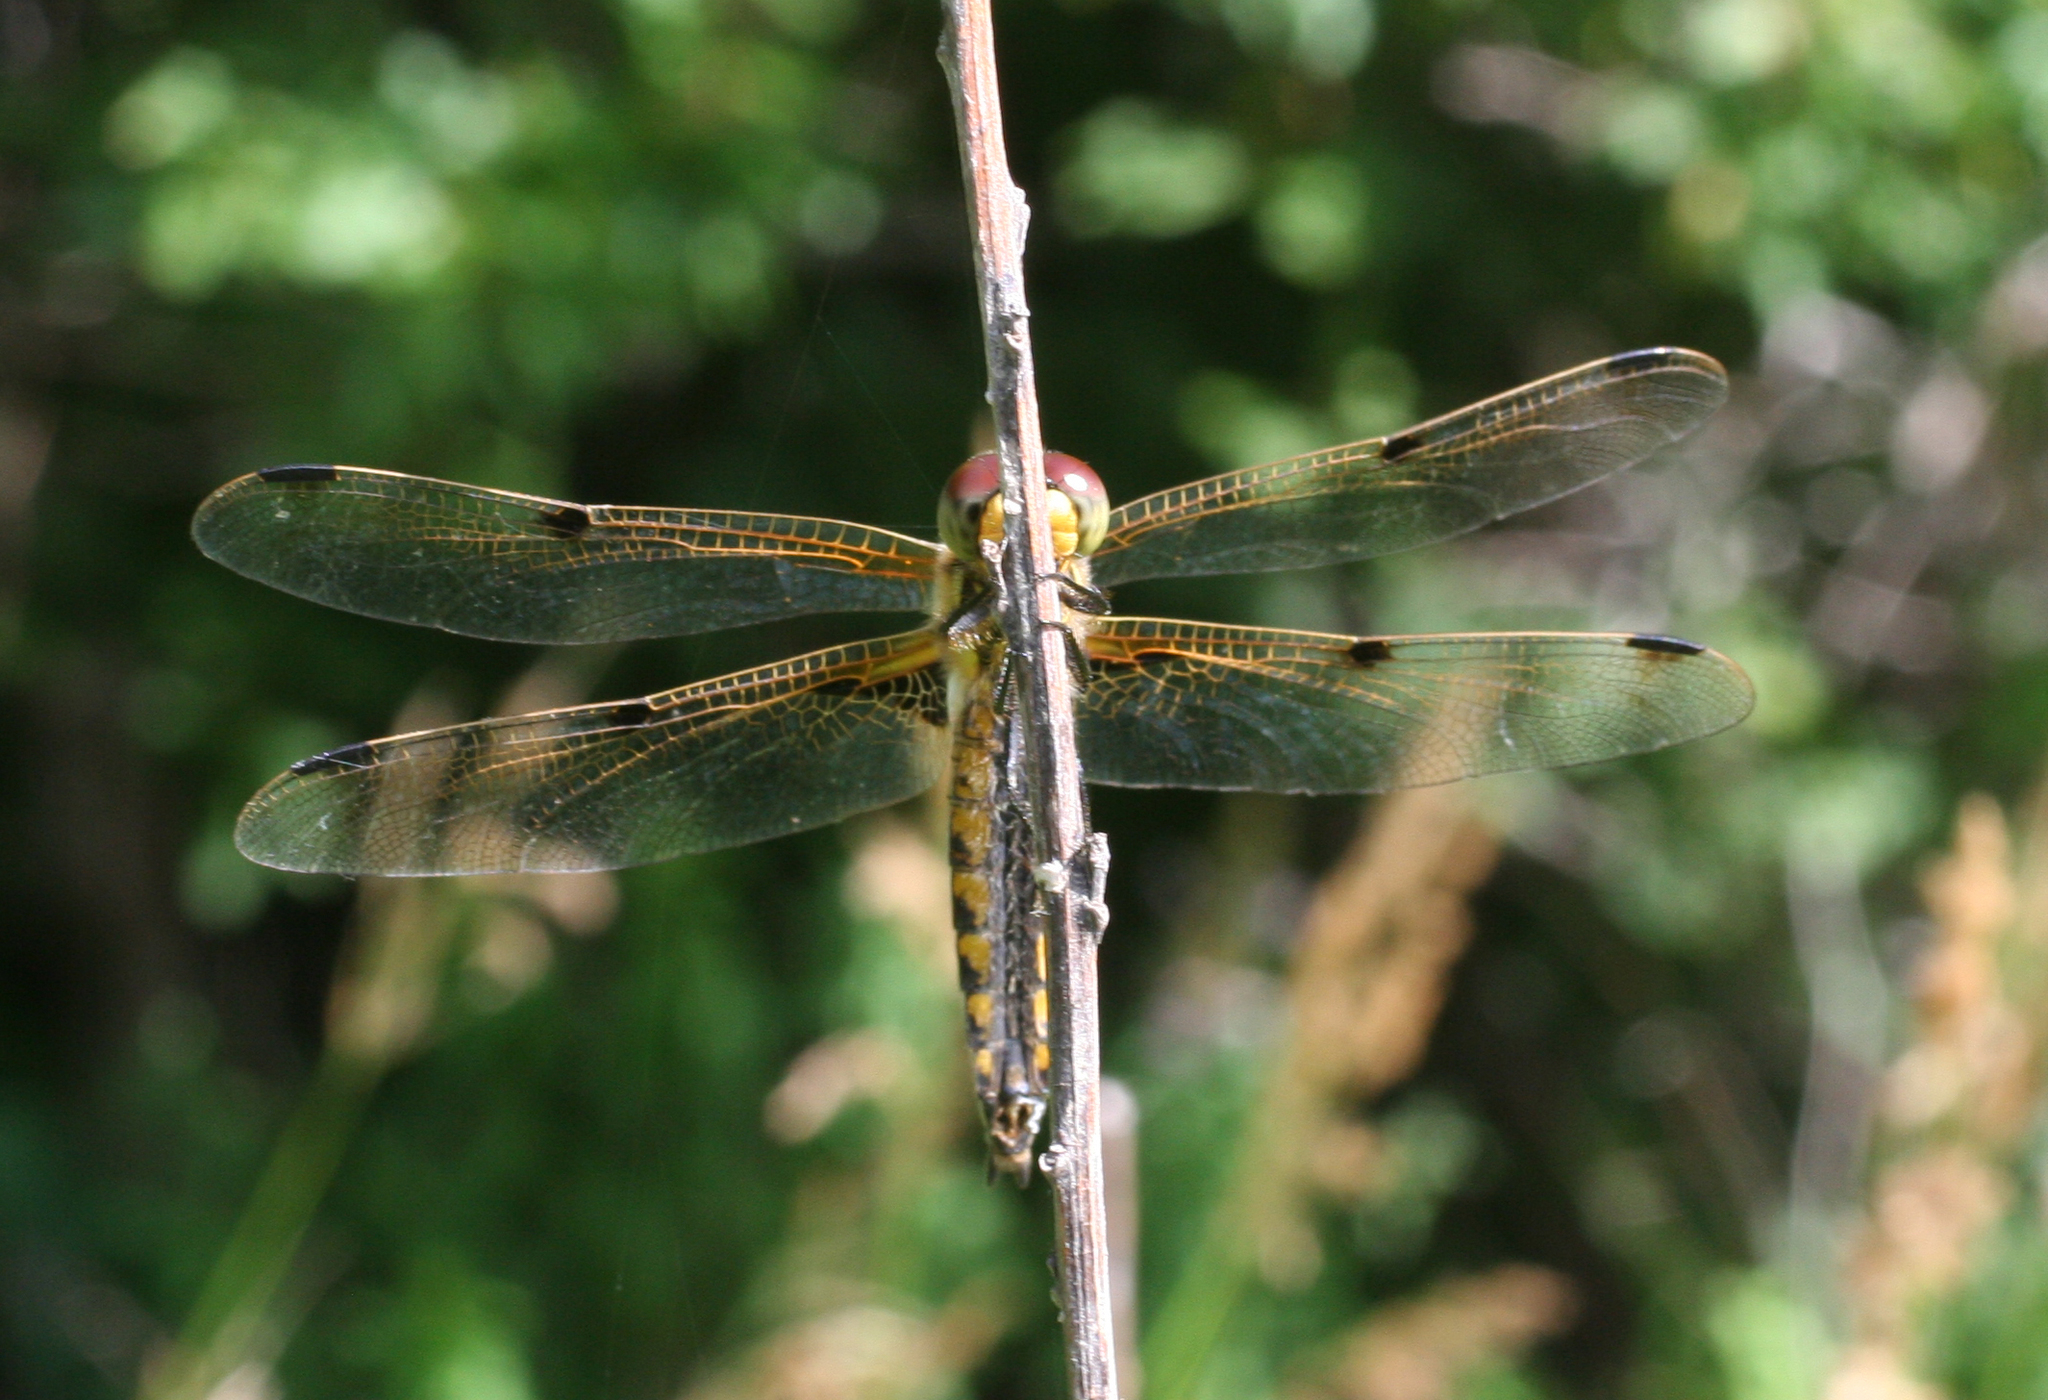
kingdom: Animalia
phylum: Arthropoda
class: Insecta
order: Odonata
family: Libellulidae
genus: Libellula
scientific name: Libellula quadrimaculata
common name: Four-spotted chaser
